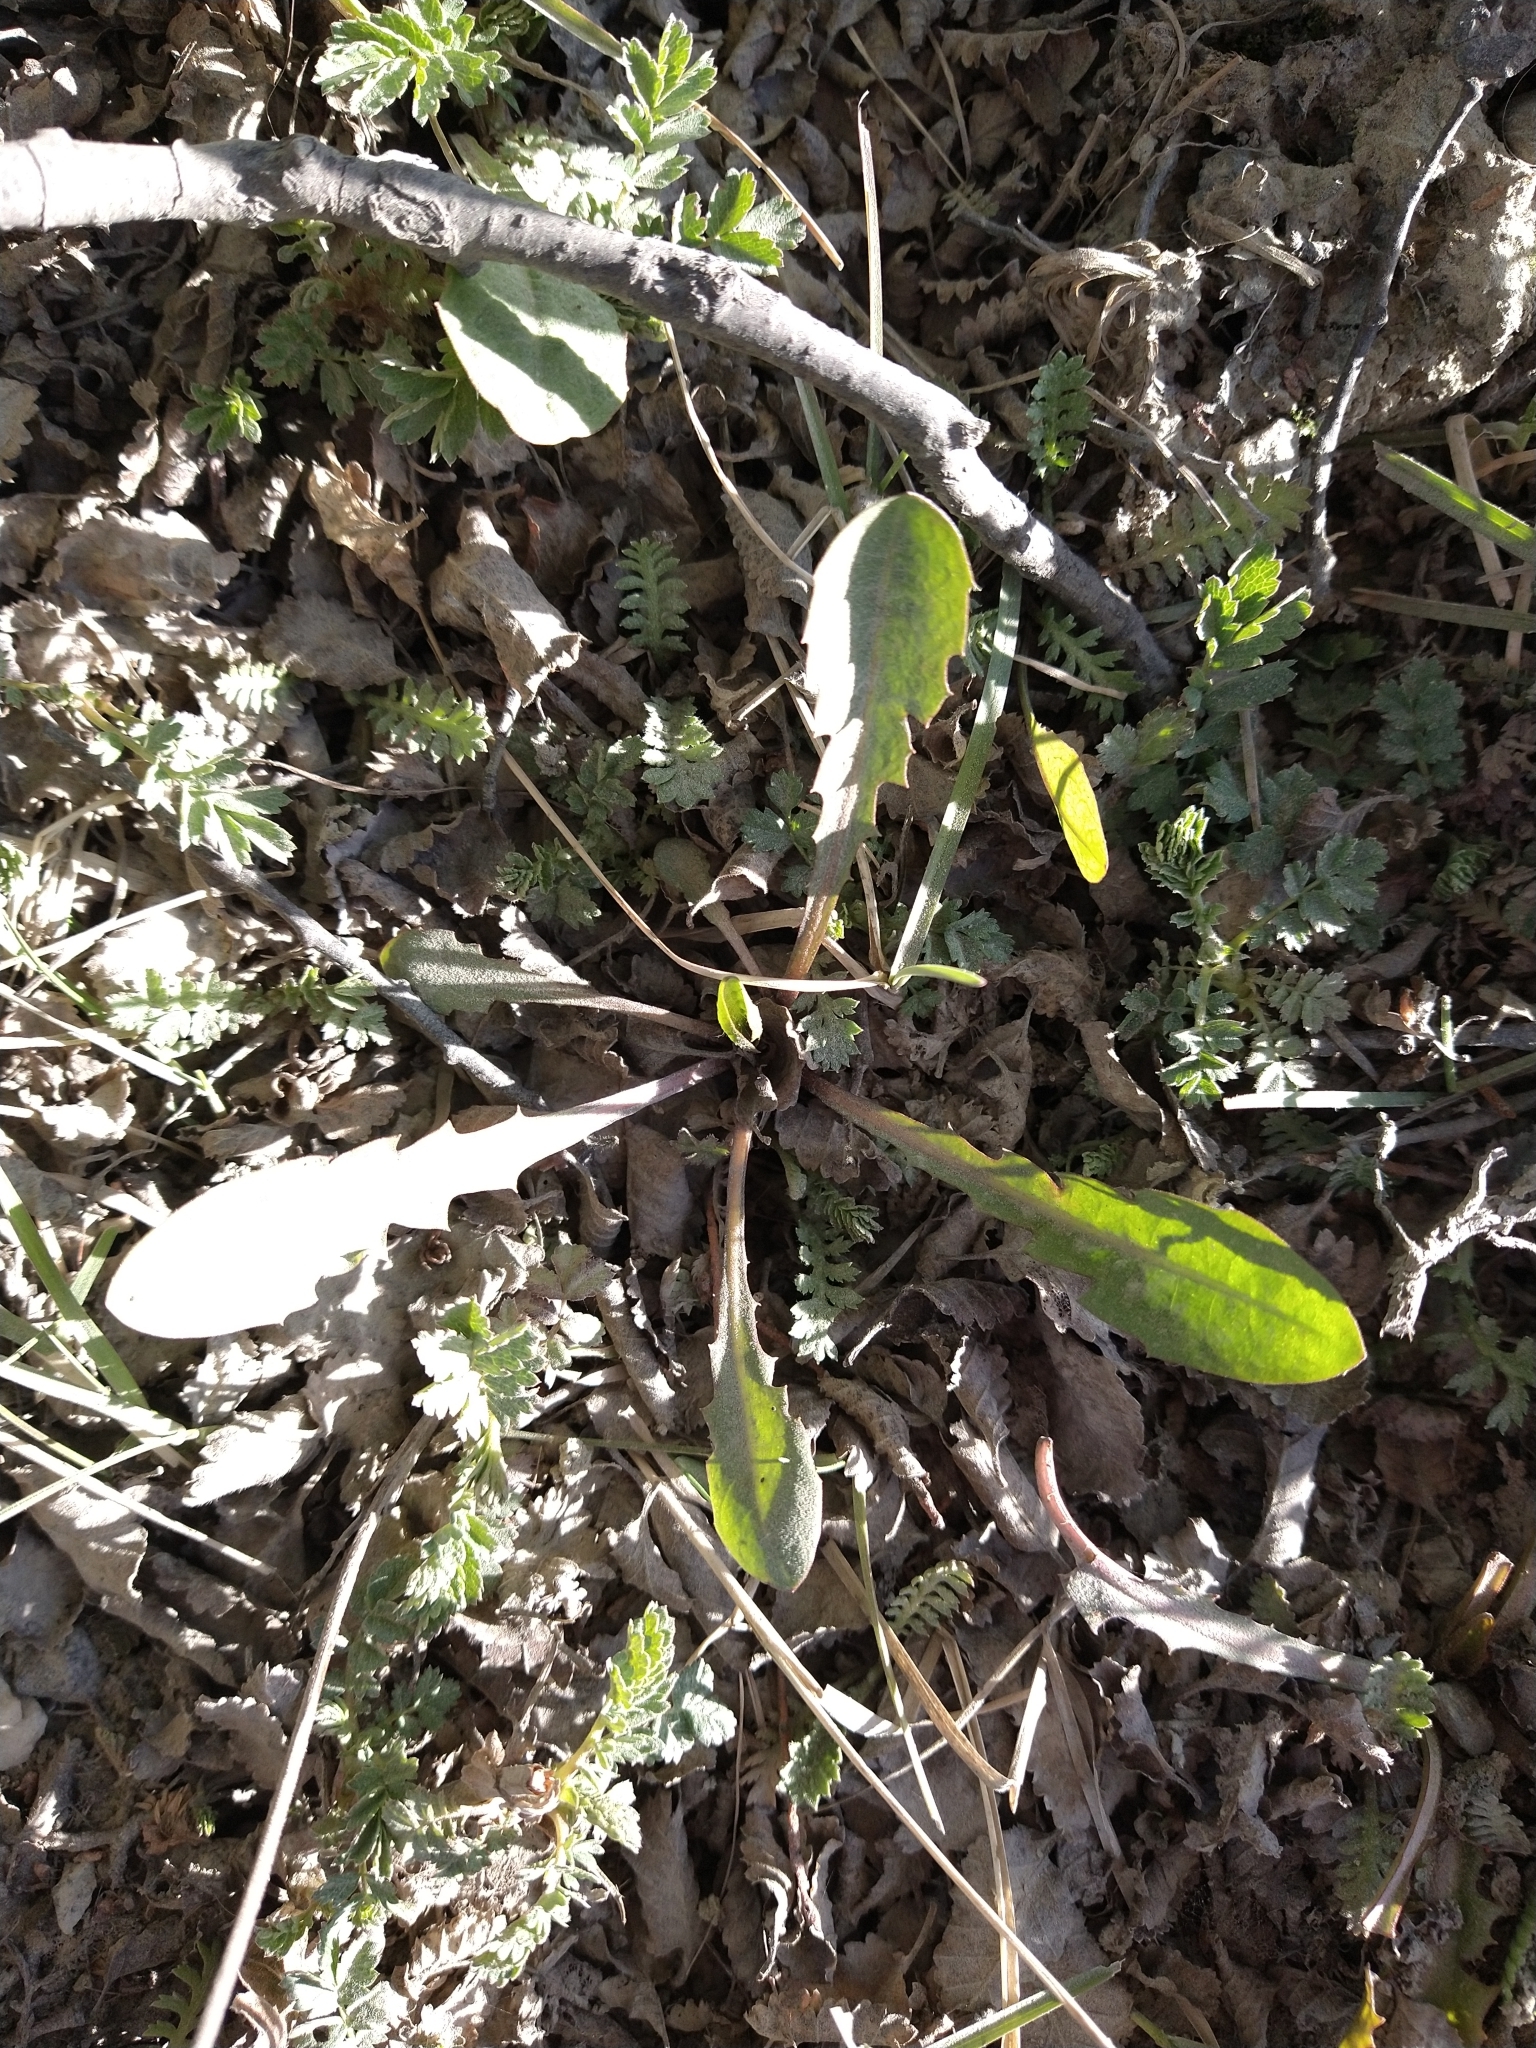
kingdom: Plantae
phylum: Tracheophyta
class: Magnoliopsida
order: Asterales
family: Asteraceae
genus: Taraxacum
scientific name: Taraxacum officinale
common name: Common dandelion
